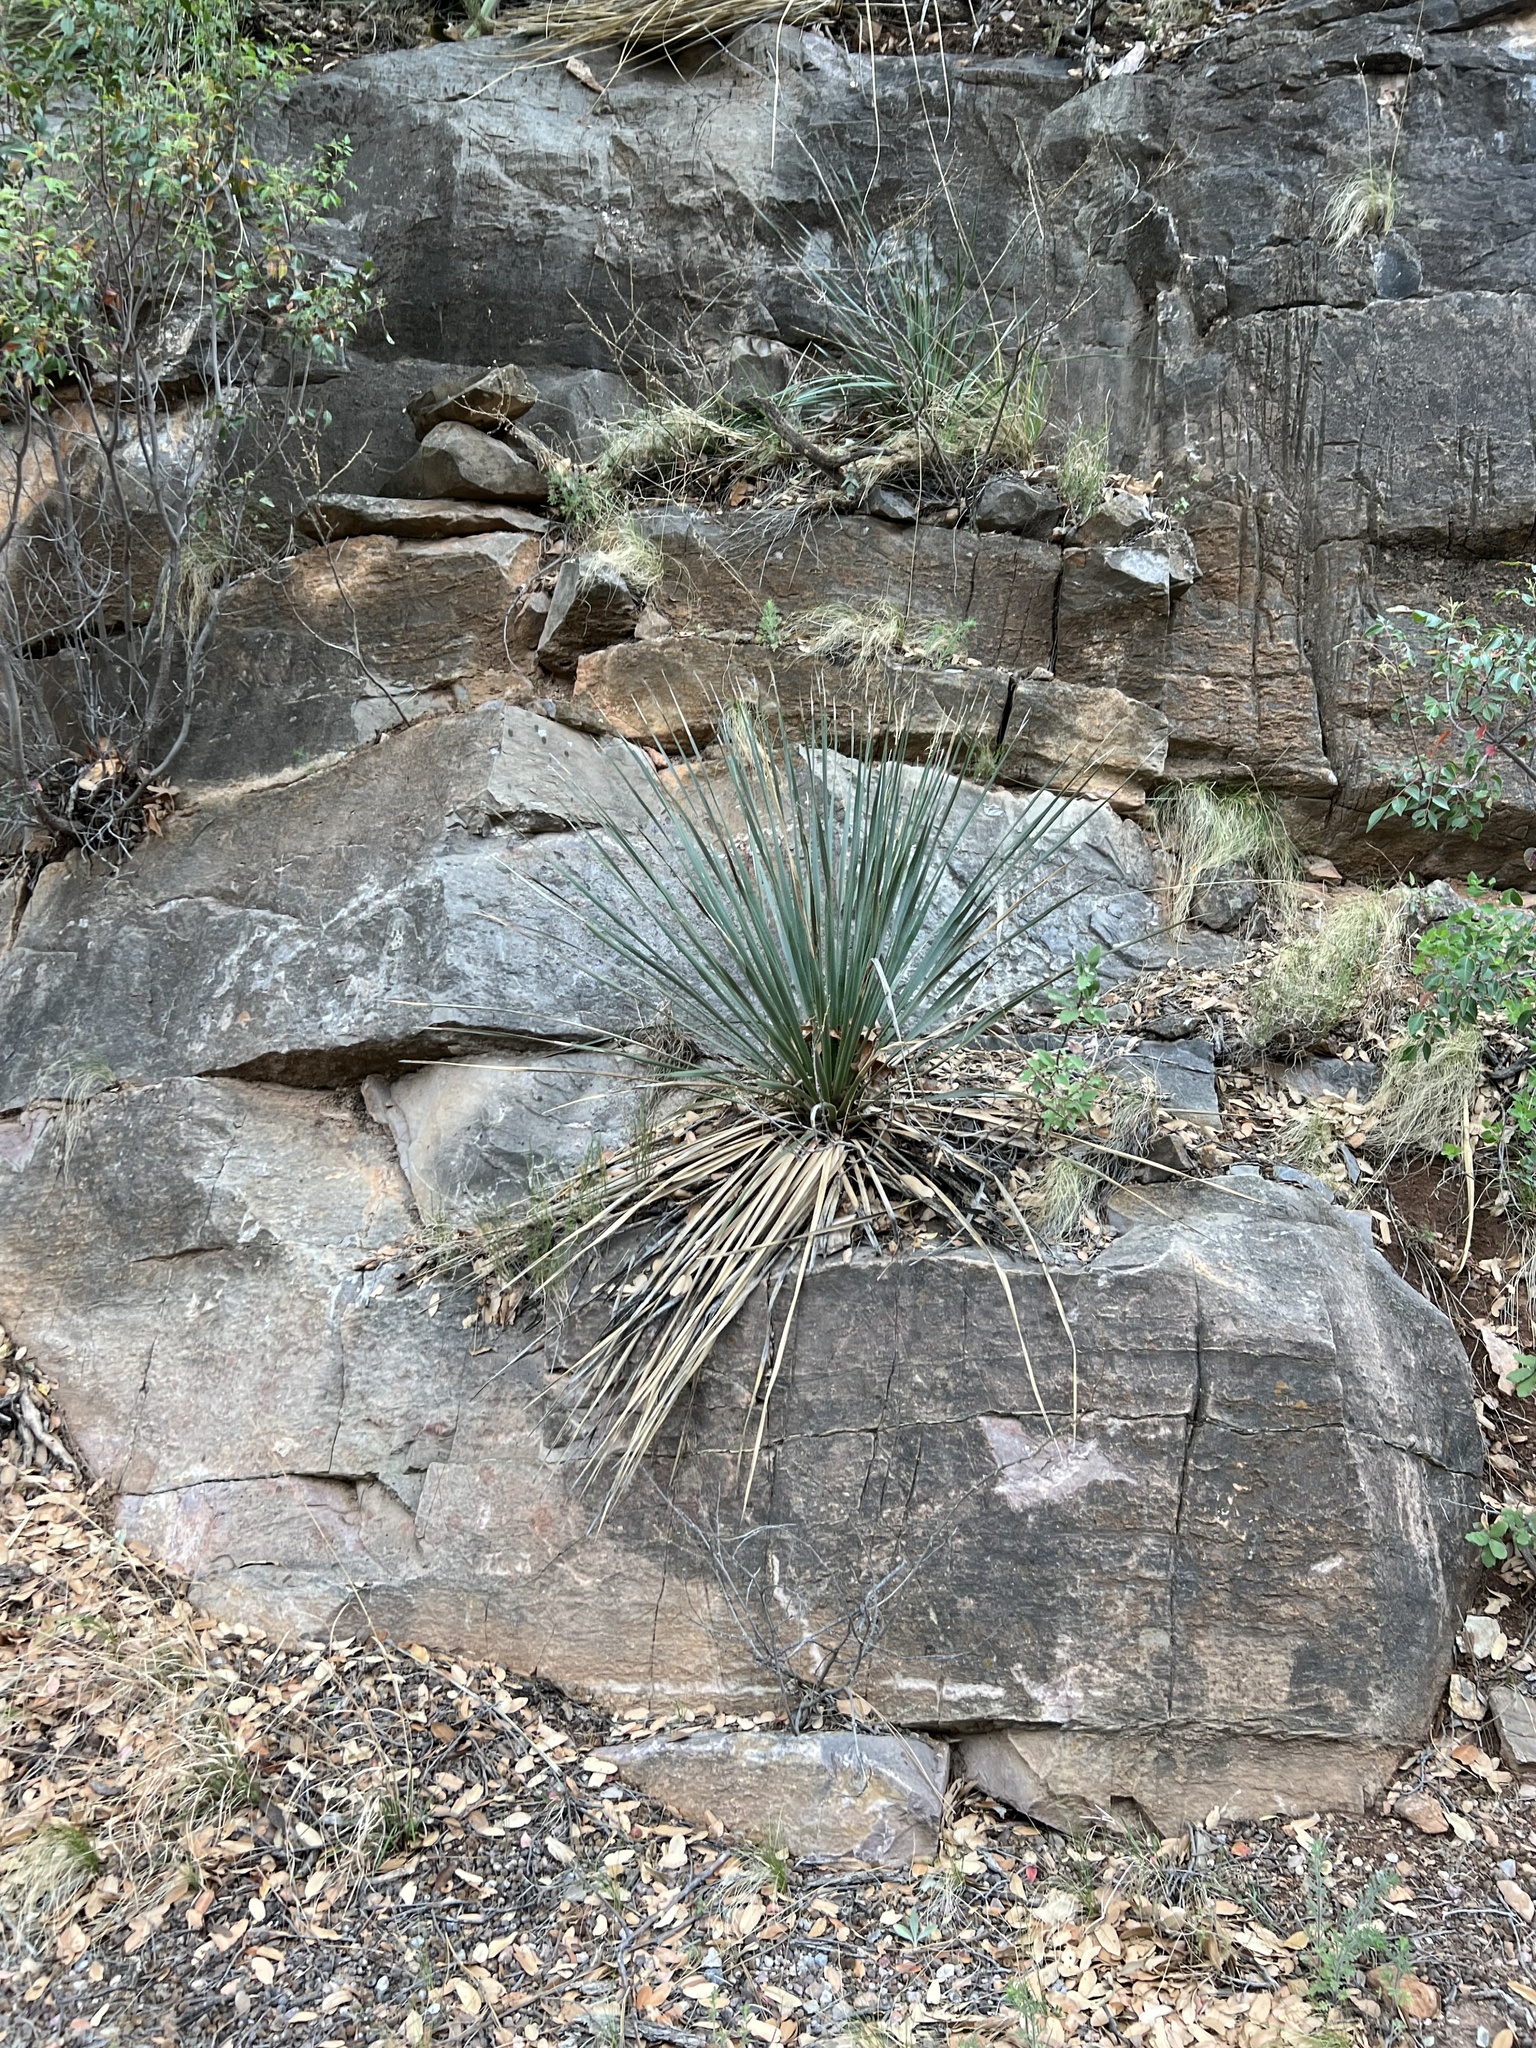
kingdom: Plantae
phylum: Tracheophyta
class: Liliopsida
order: Asparagales
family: Asparagaceae
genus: Dasylirion
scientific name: Dasylirion wheeleri
